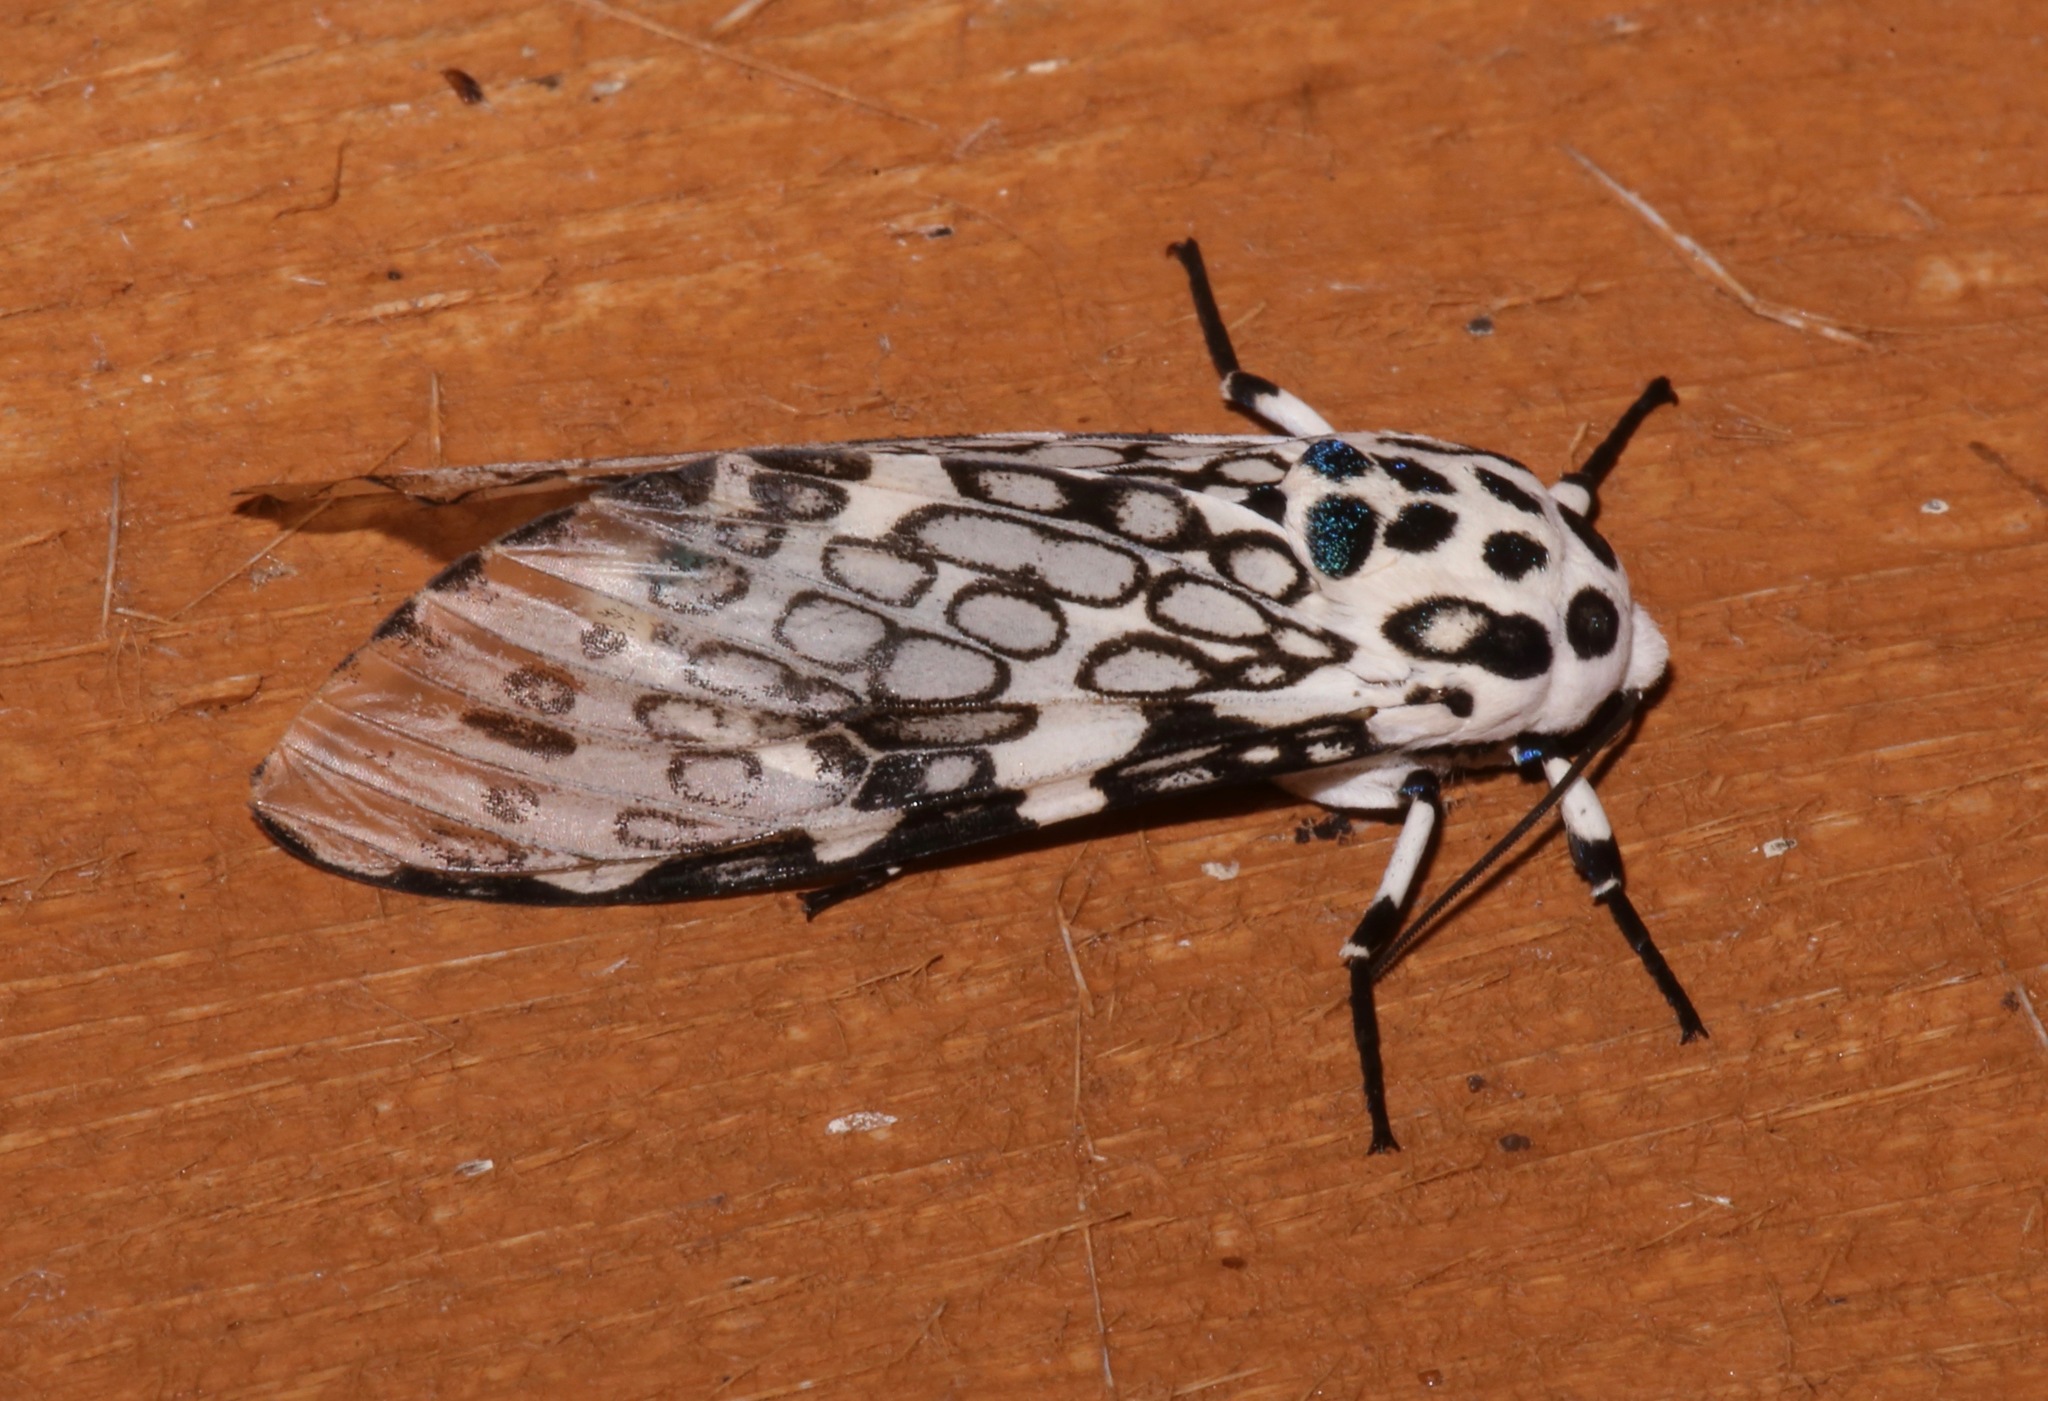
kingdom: Animalia
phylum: Arthropoda
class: Insecta
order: Lepidoptera
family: Erebidae
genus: Hypercompe
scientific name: Hypercompe scribonia
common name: Giant leopard moth
